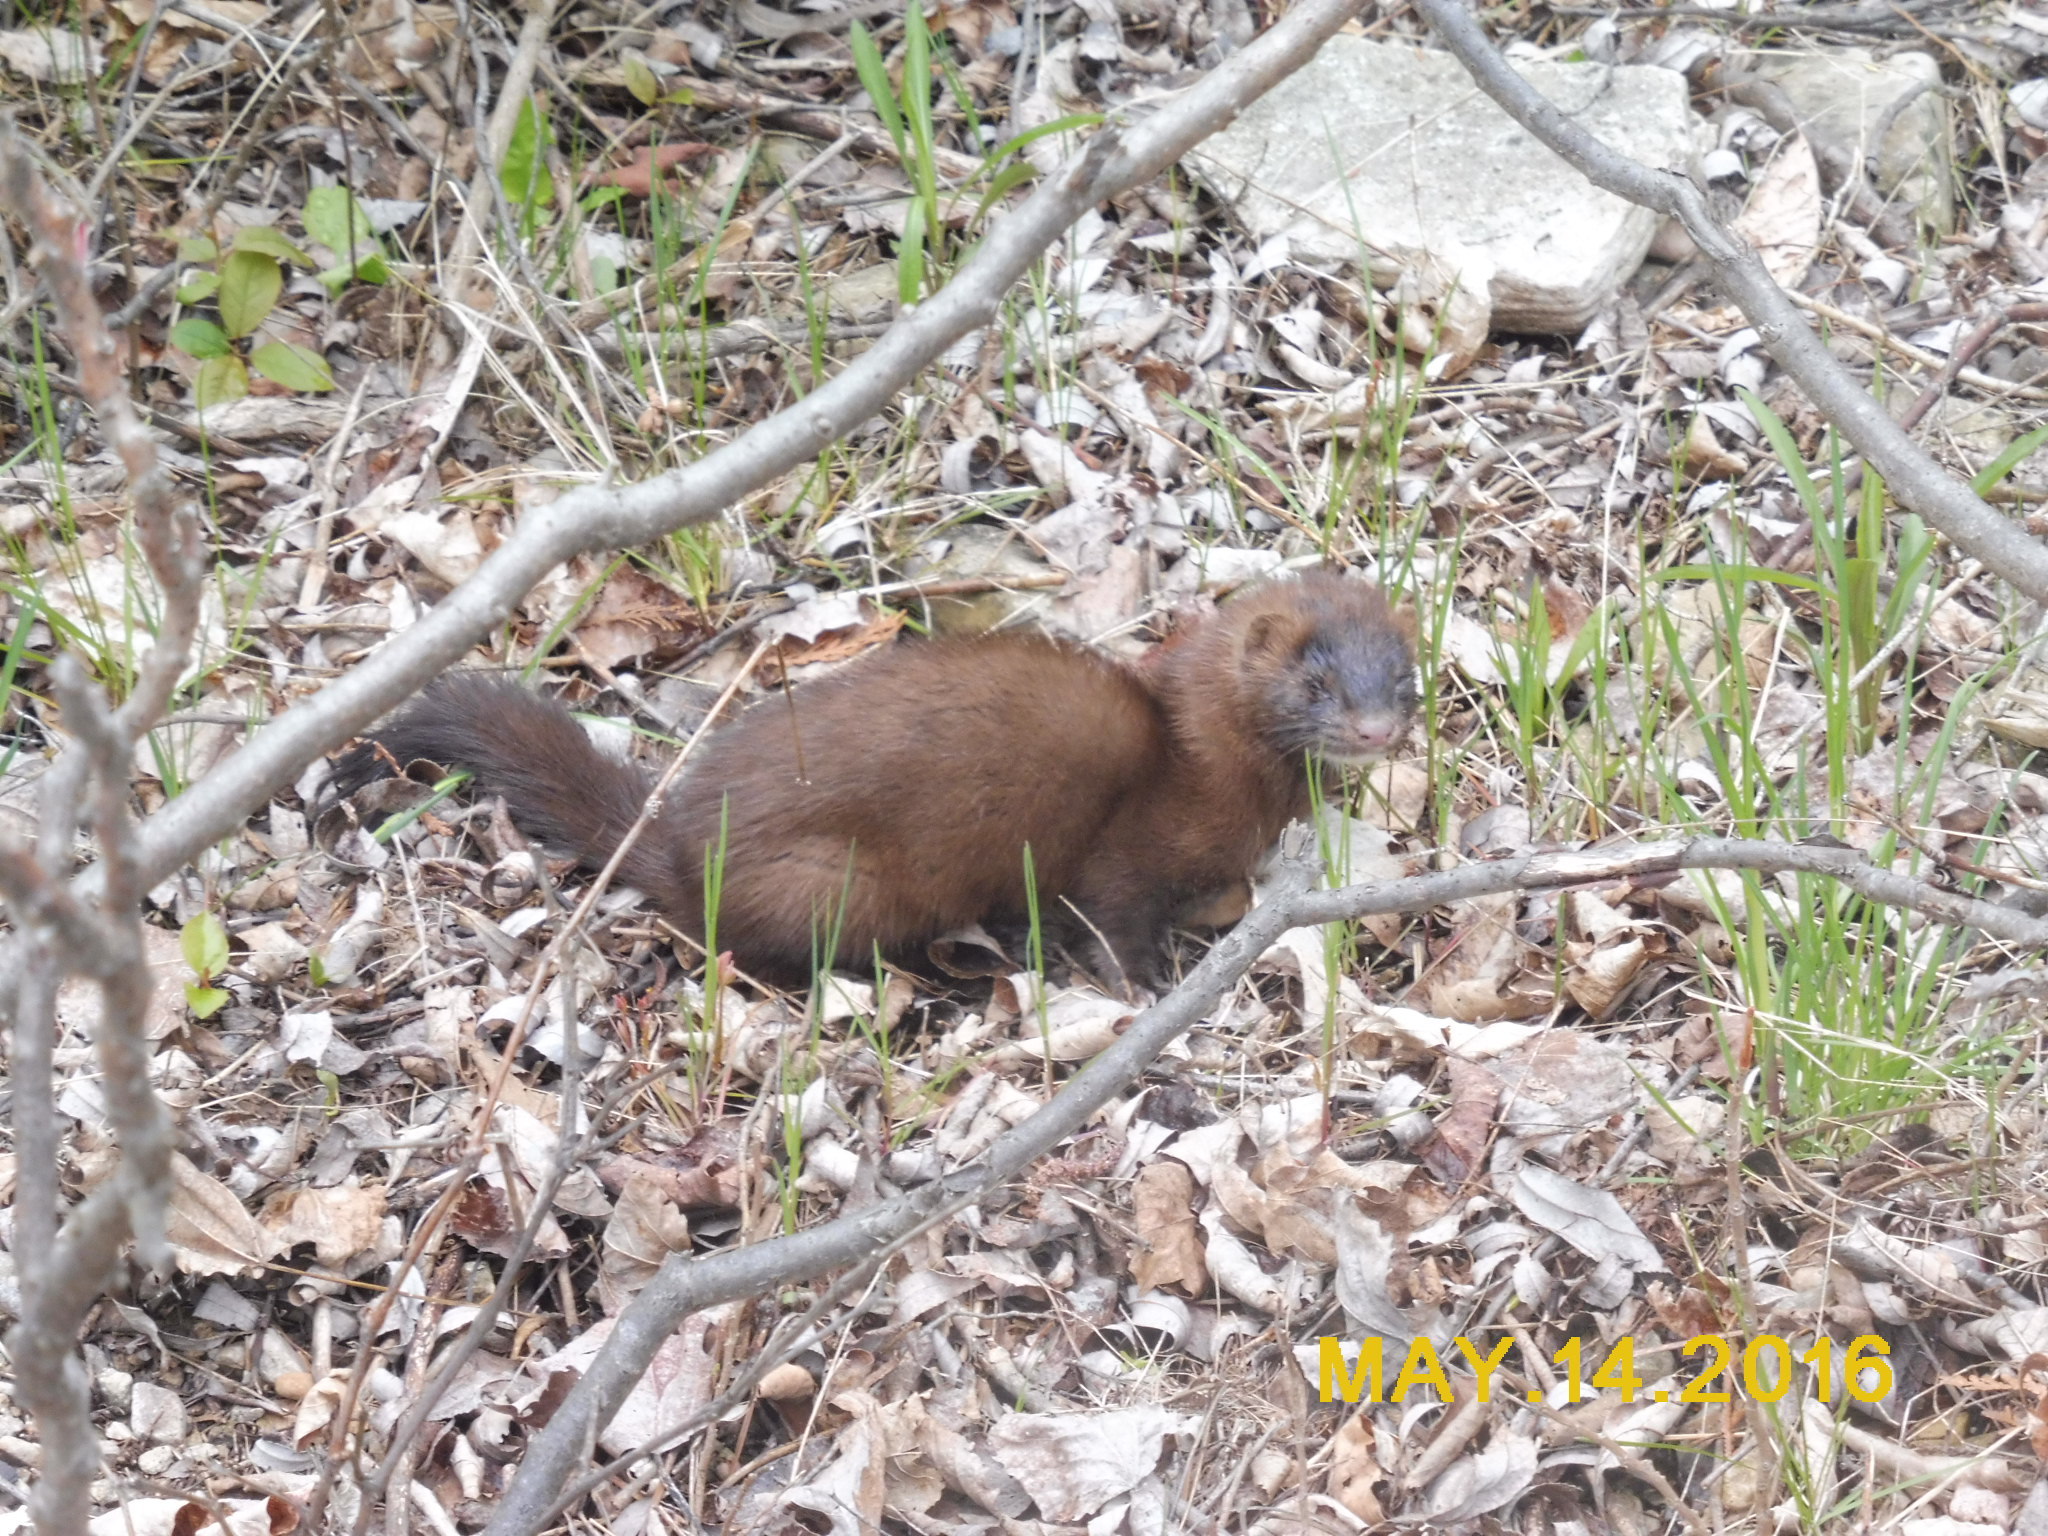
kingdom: Animalia
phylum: Chordata
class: Mammalia
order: Carnivora
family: Mustelidae
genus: Mustela
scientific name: Mustela
